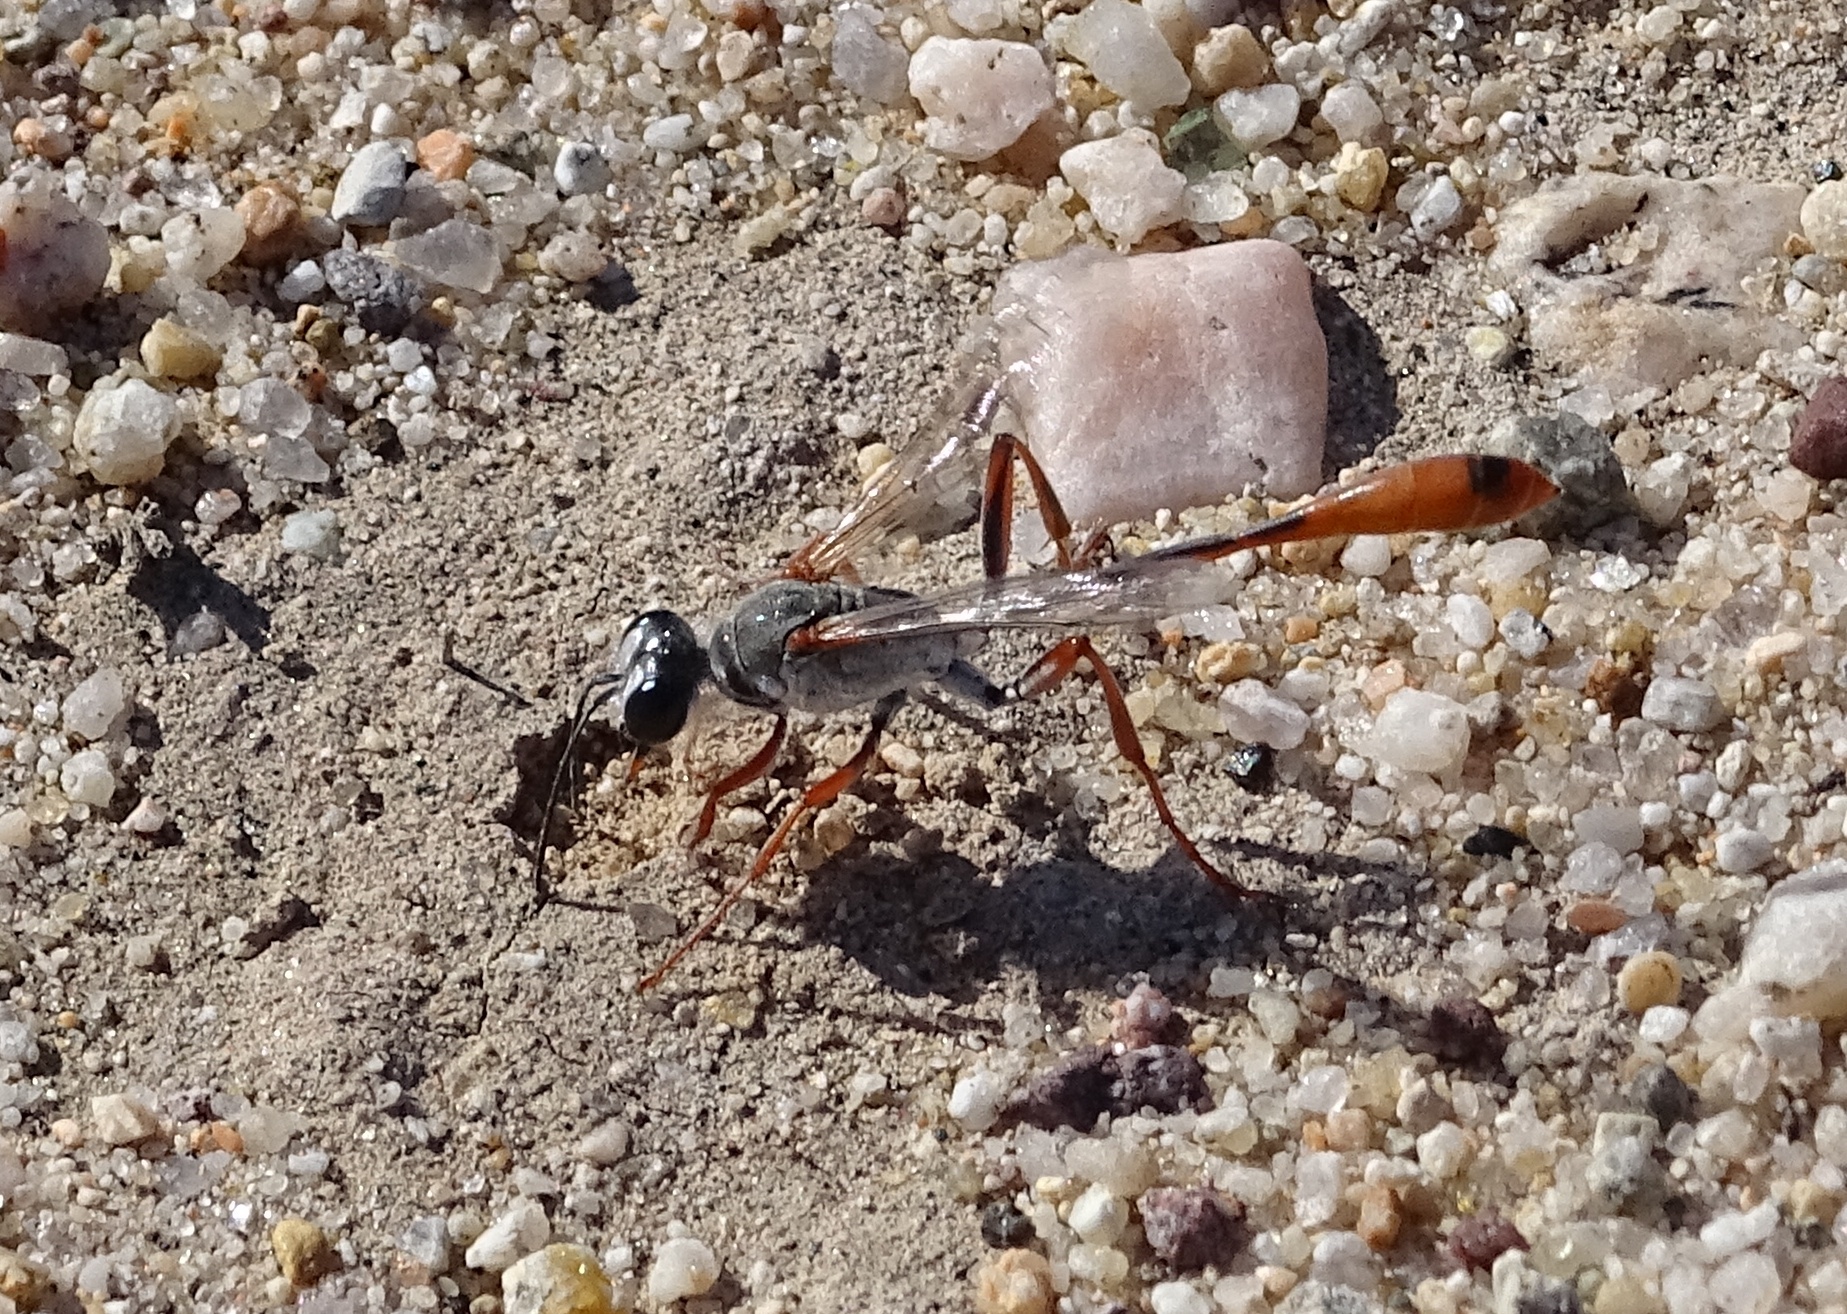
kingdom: Animalia
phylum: Arthropoda
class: Insecta
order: Hymenoptera
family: Sphecidae
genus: Ammophila
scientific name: Ammophila aberti
